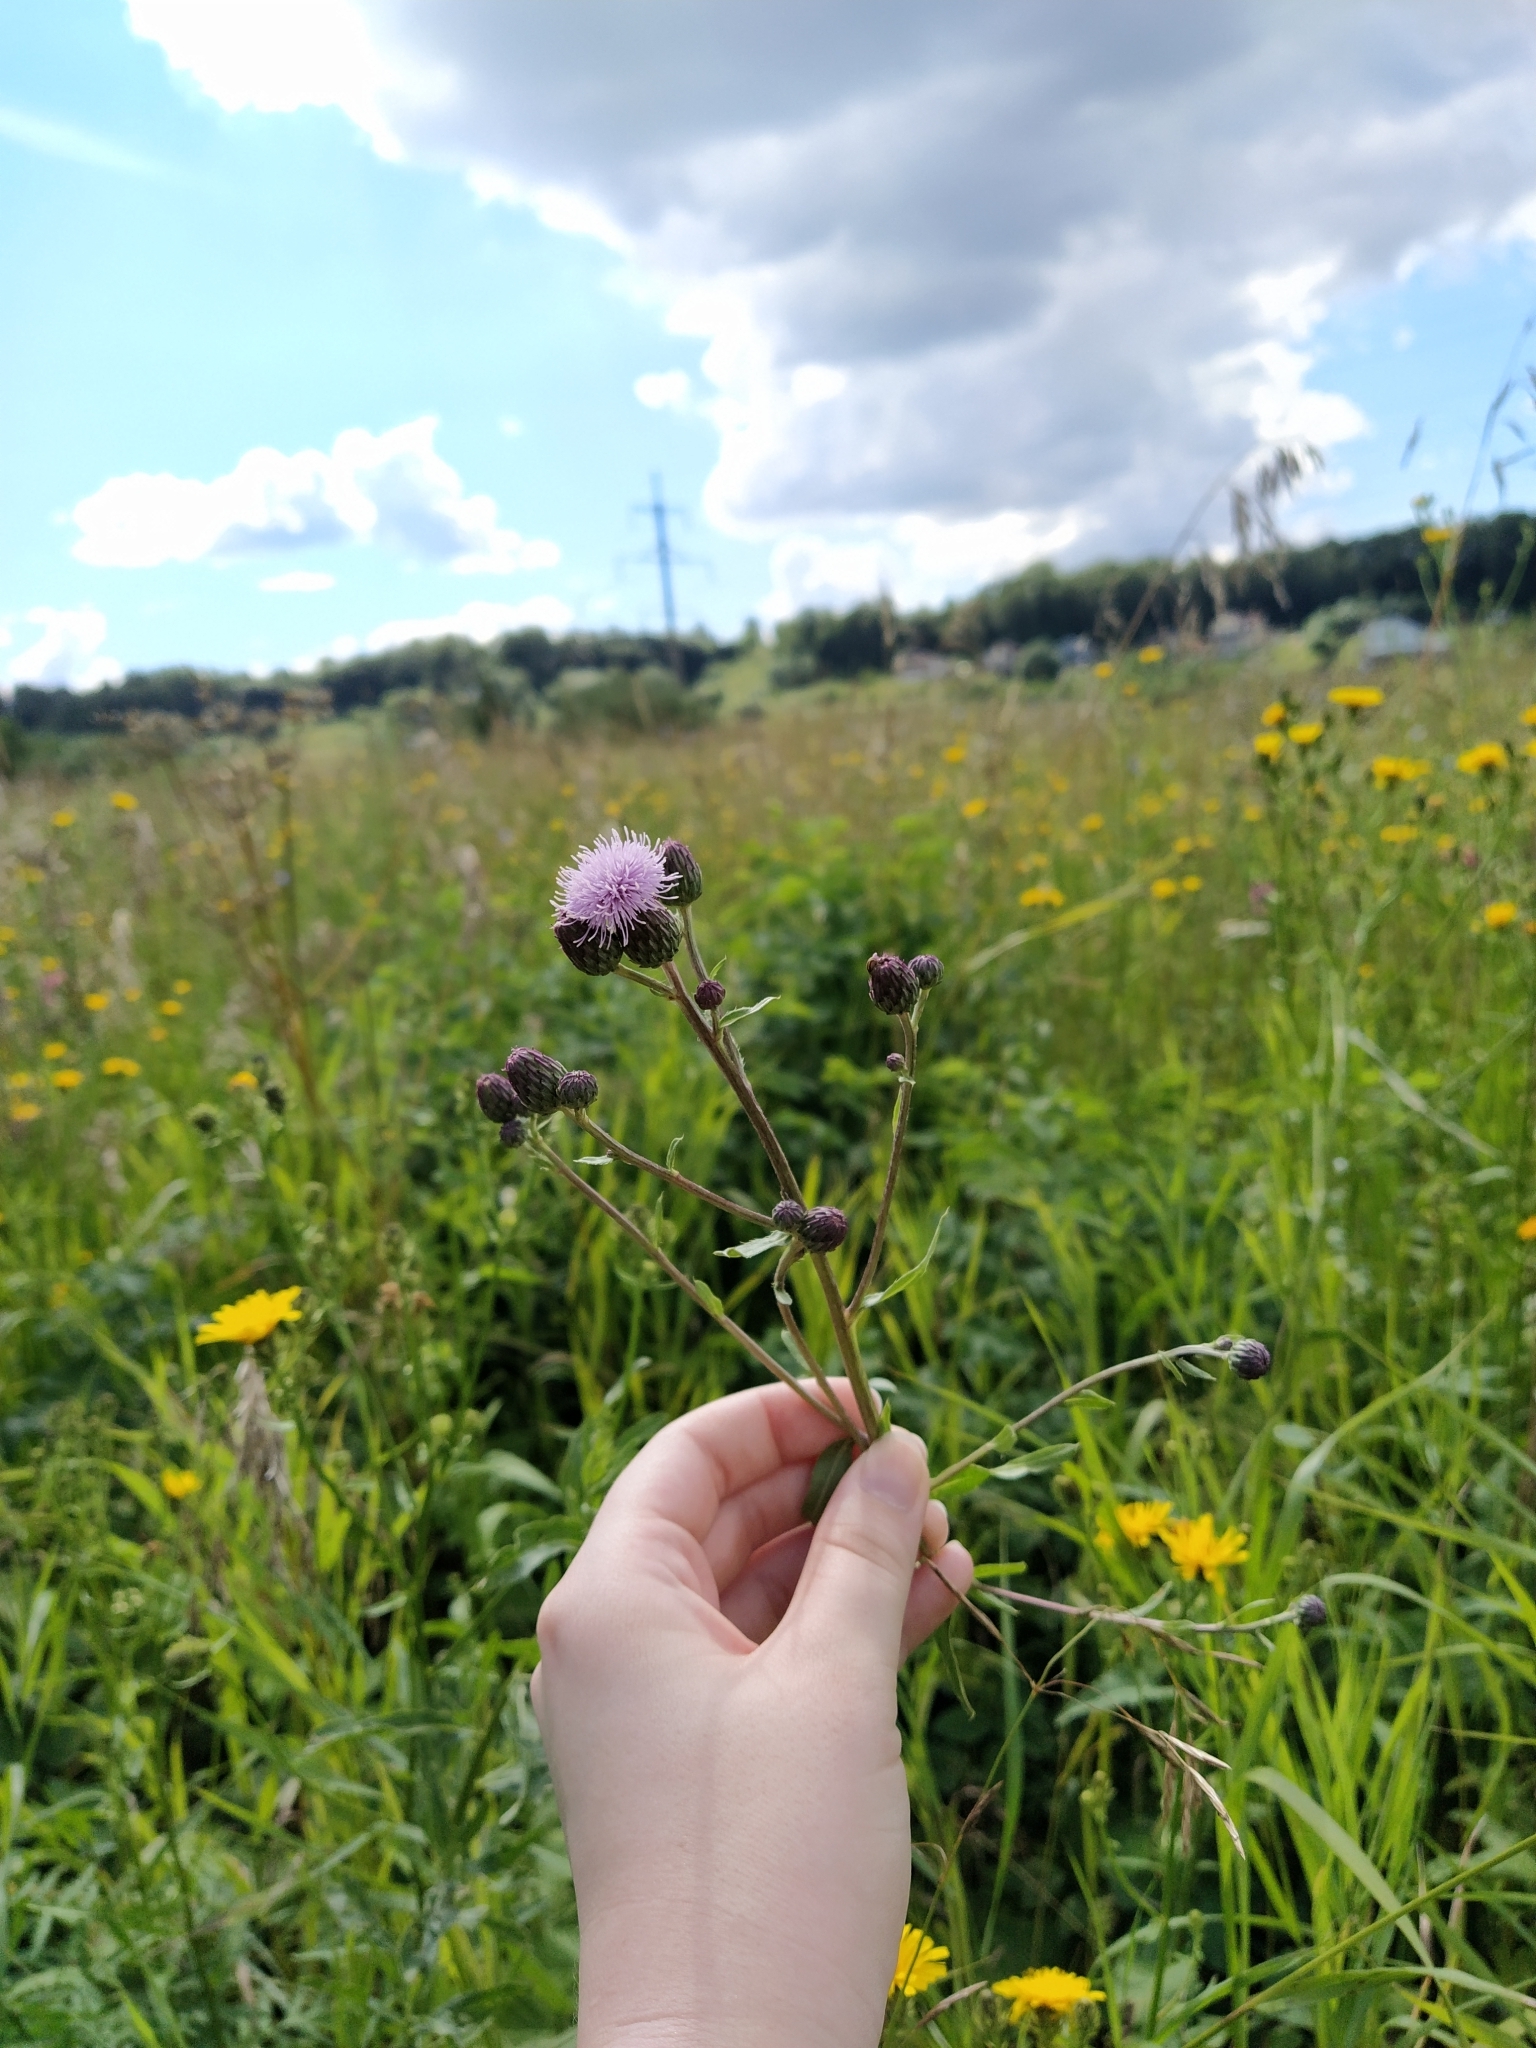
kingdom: Plantae
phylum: Tracheophyta
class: Magnoliopsida
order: Asterales
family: Asteraceae
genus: Cirsium
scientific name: Cirsium arvense
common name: Creeping thistle
